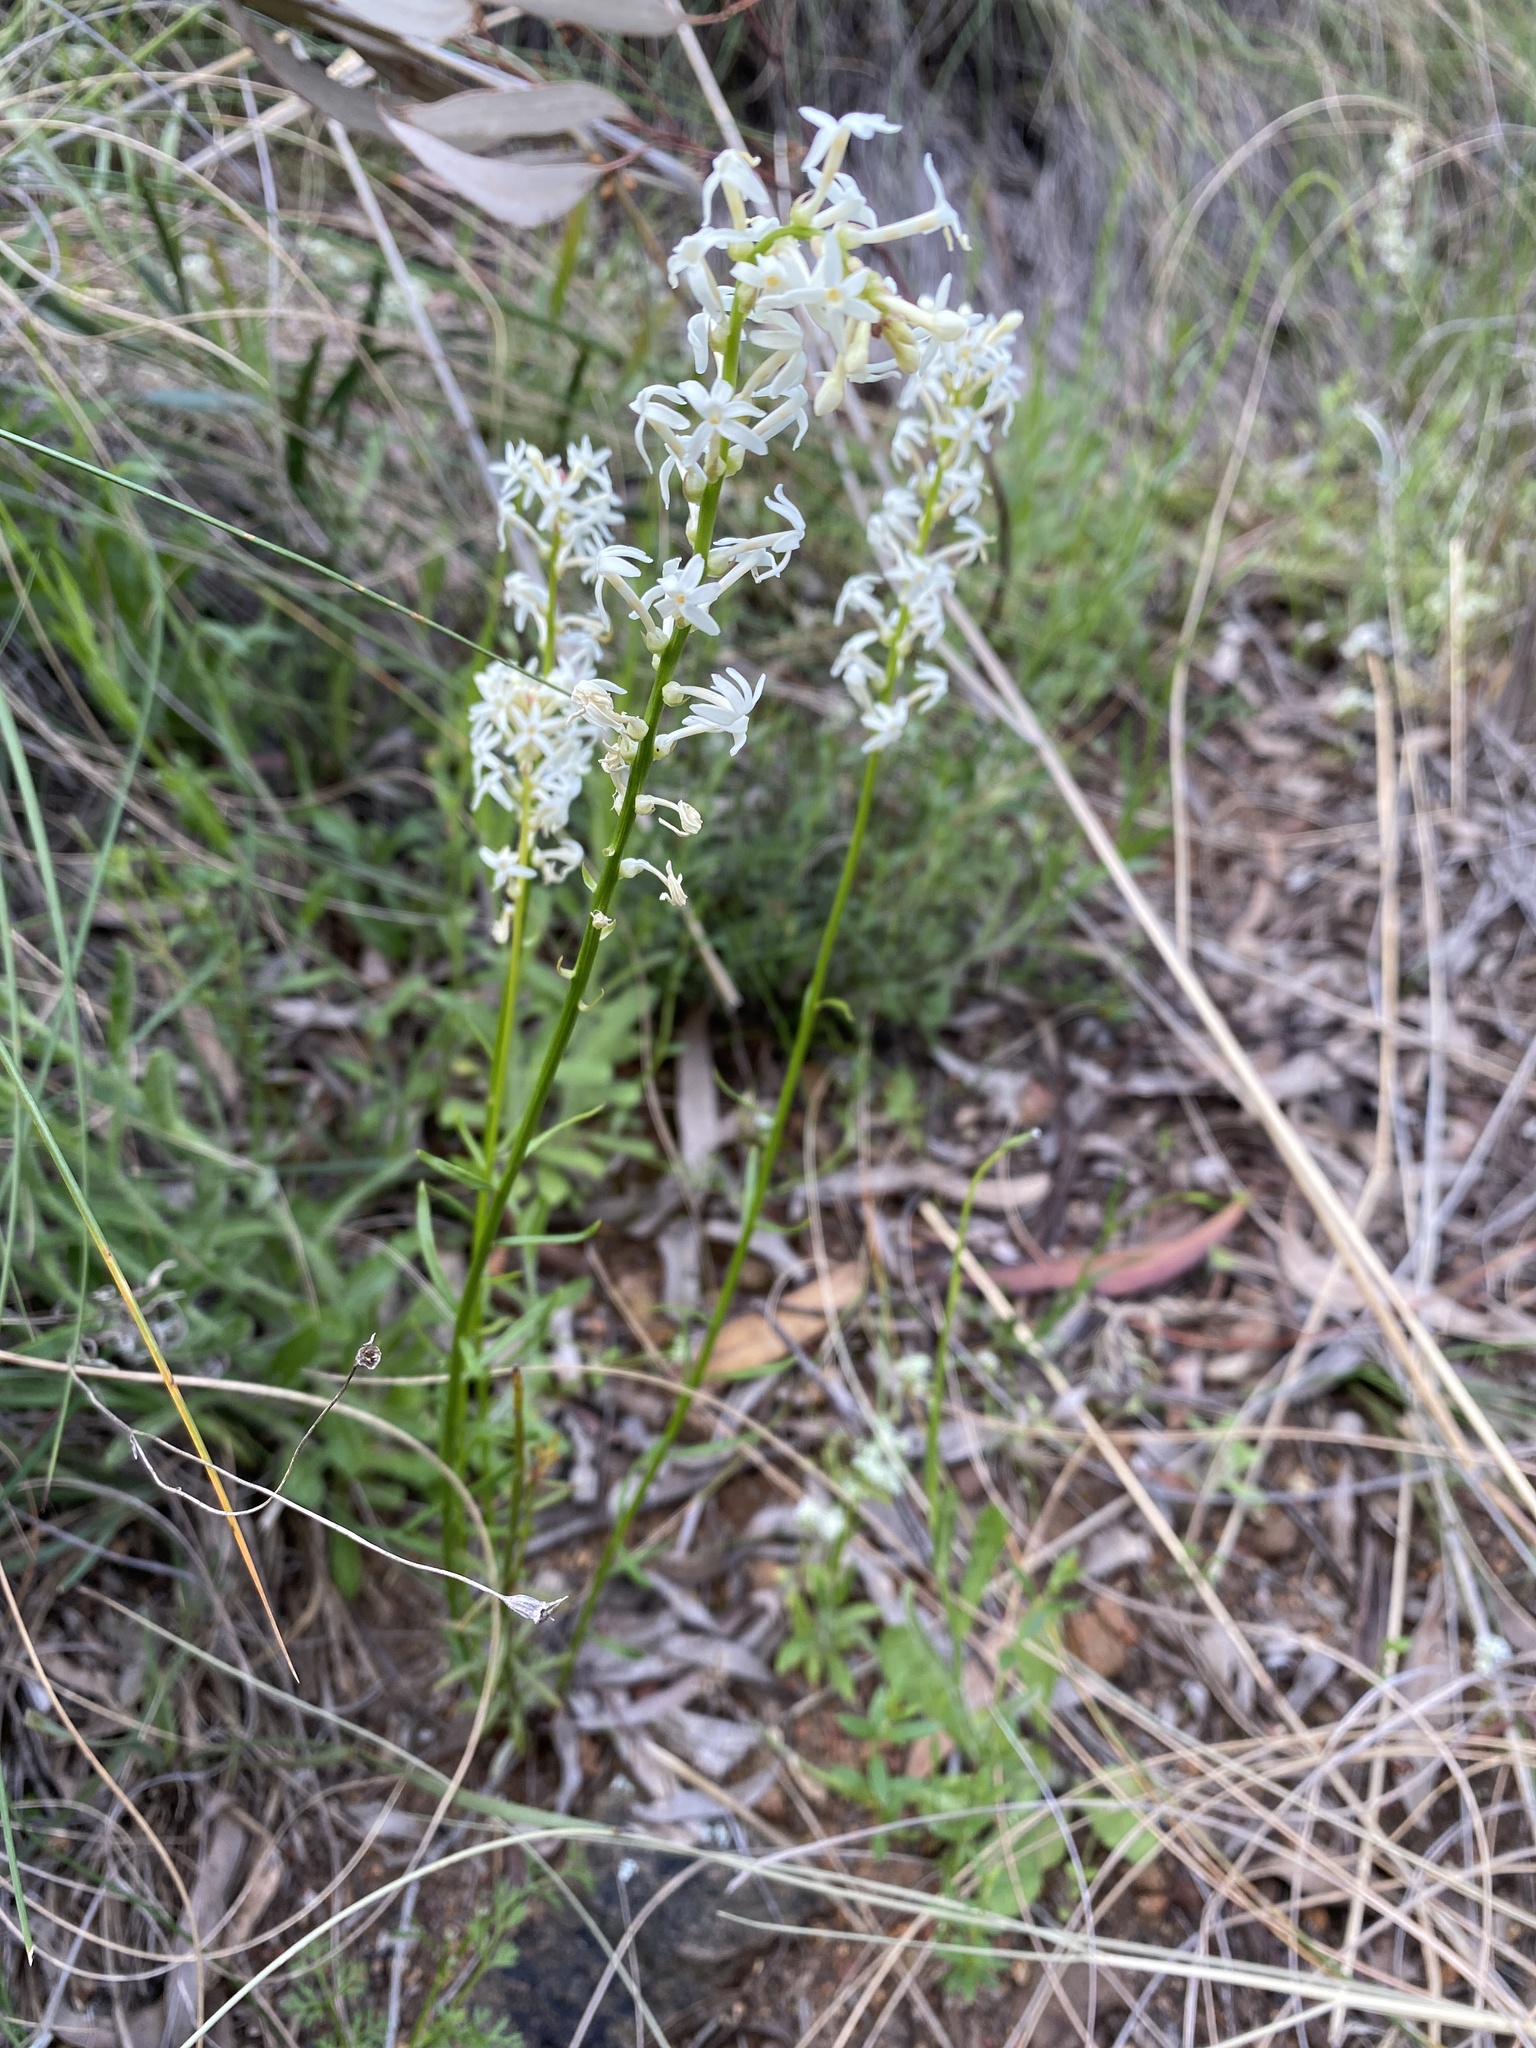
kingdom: Plantae
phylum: Tracheophyta
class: Magnoliopsida
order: Celastrales
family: Celastraceae
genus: Stackhousia
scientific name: Stackhousia monogyna
